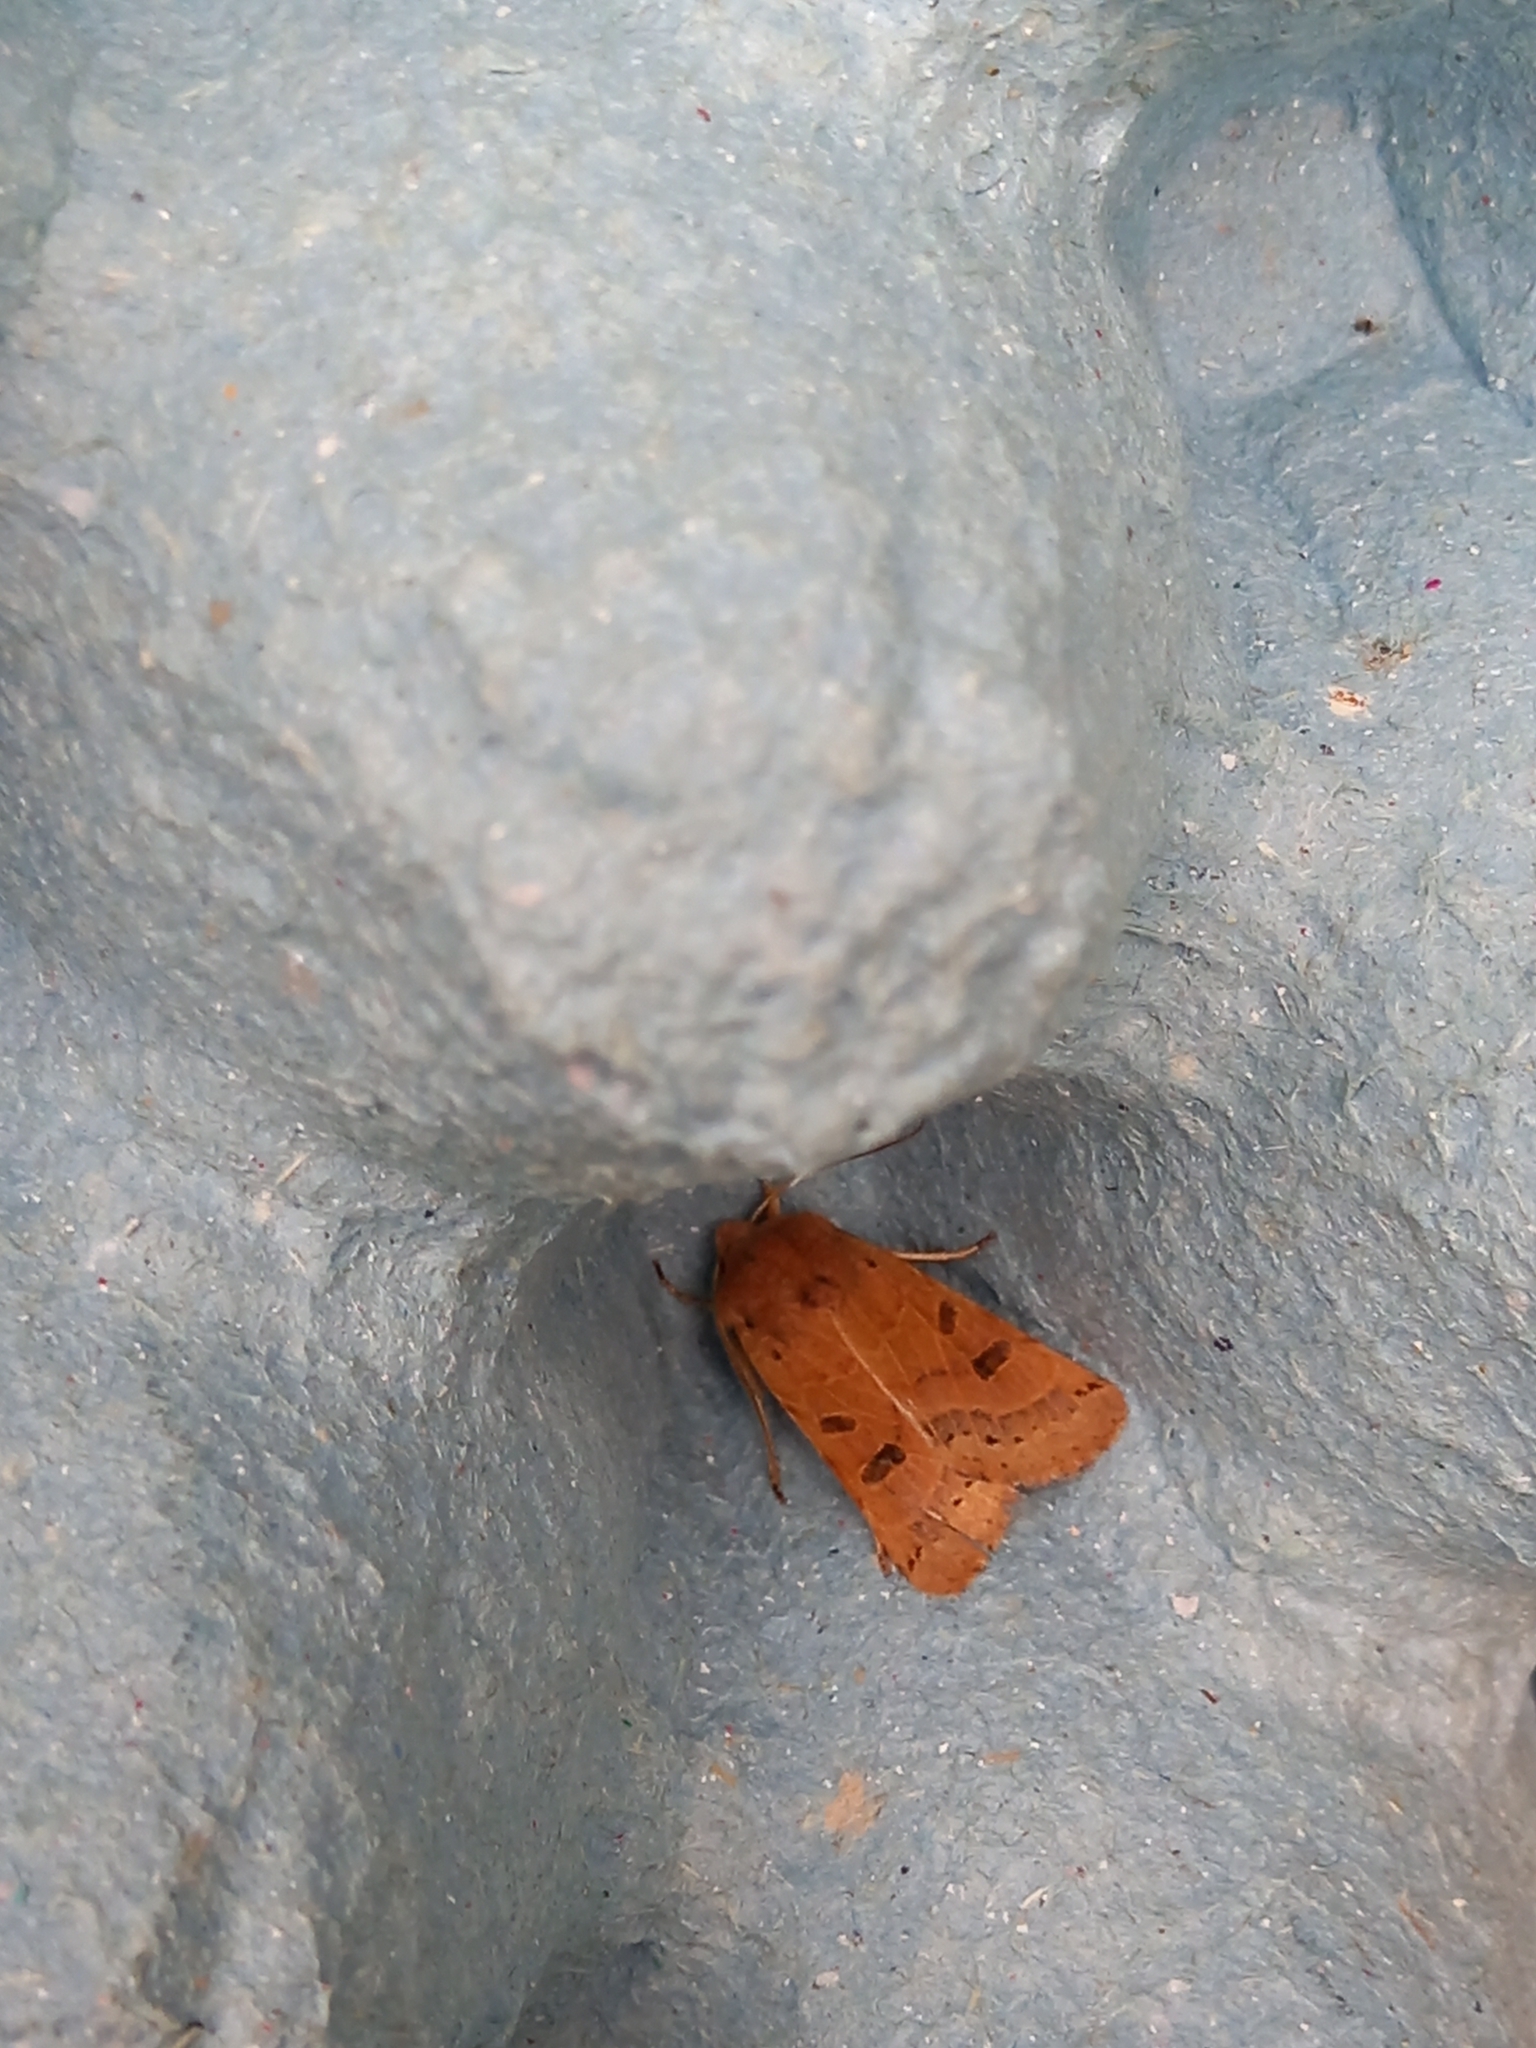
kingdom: Animalia
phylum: Arthropoda
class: Insecta
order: Lepidoptera
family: Noctuidae
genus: Agrochola
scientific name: Agrochola lunosa
